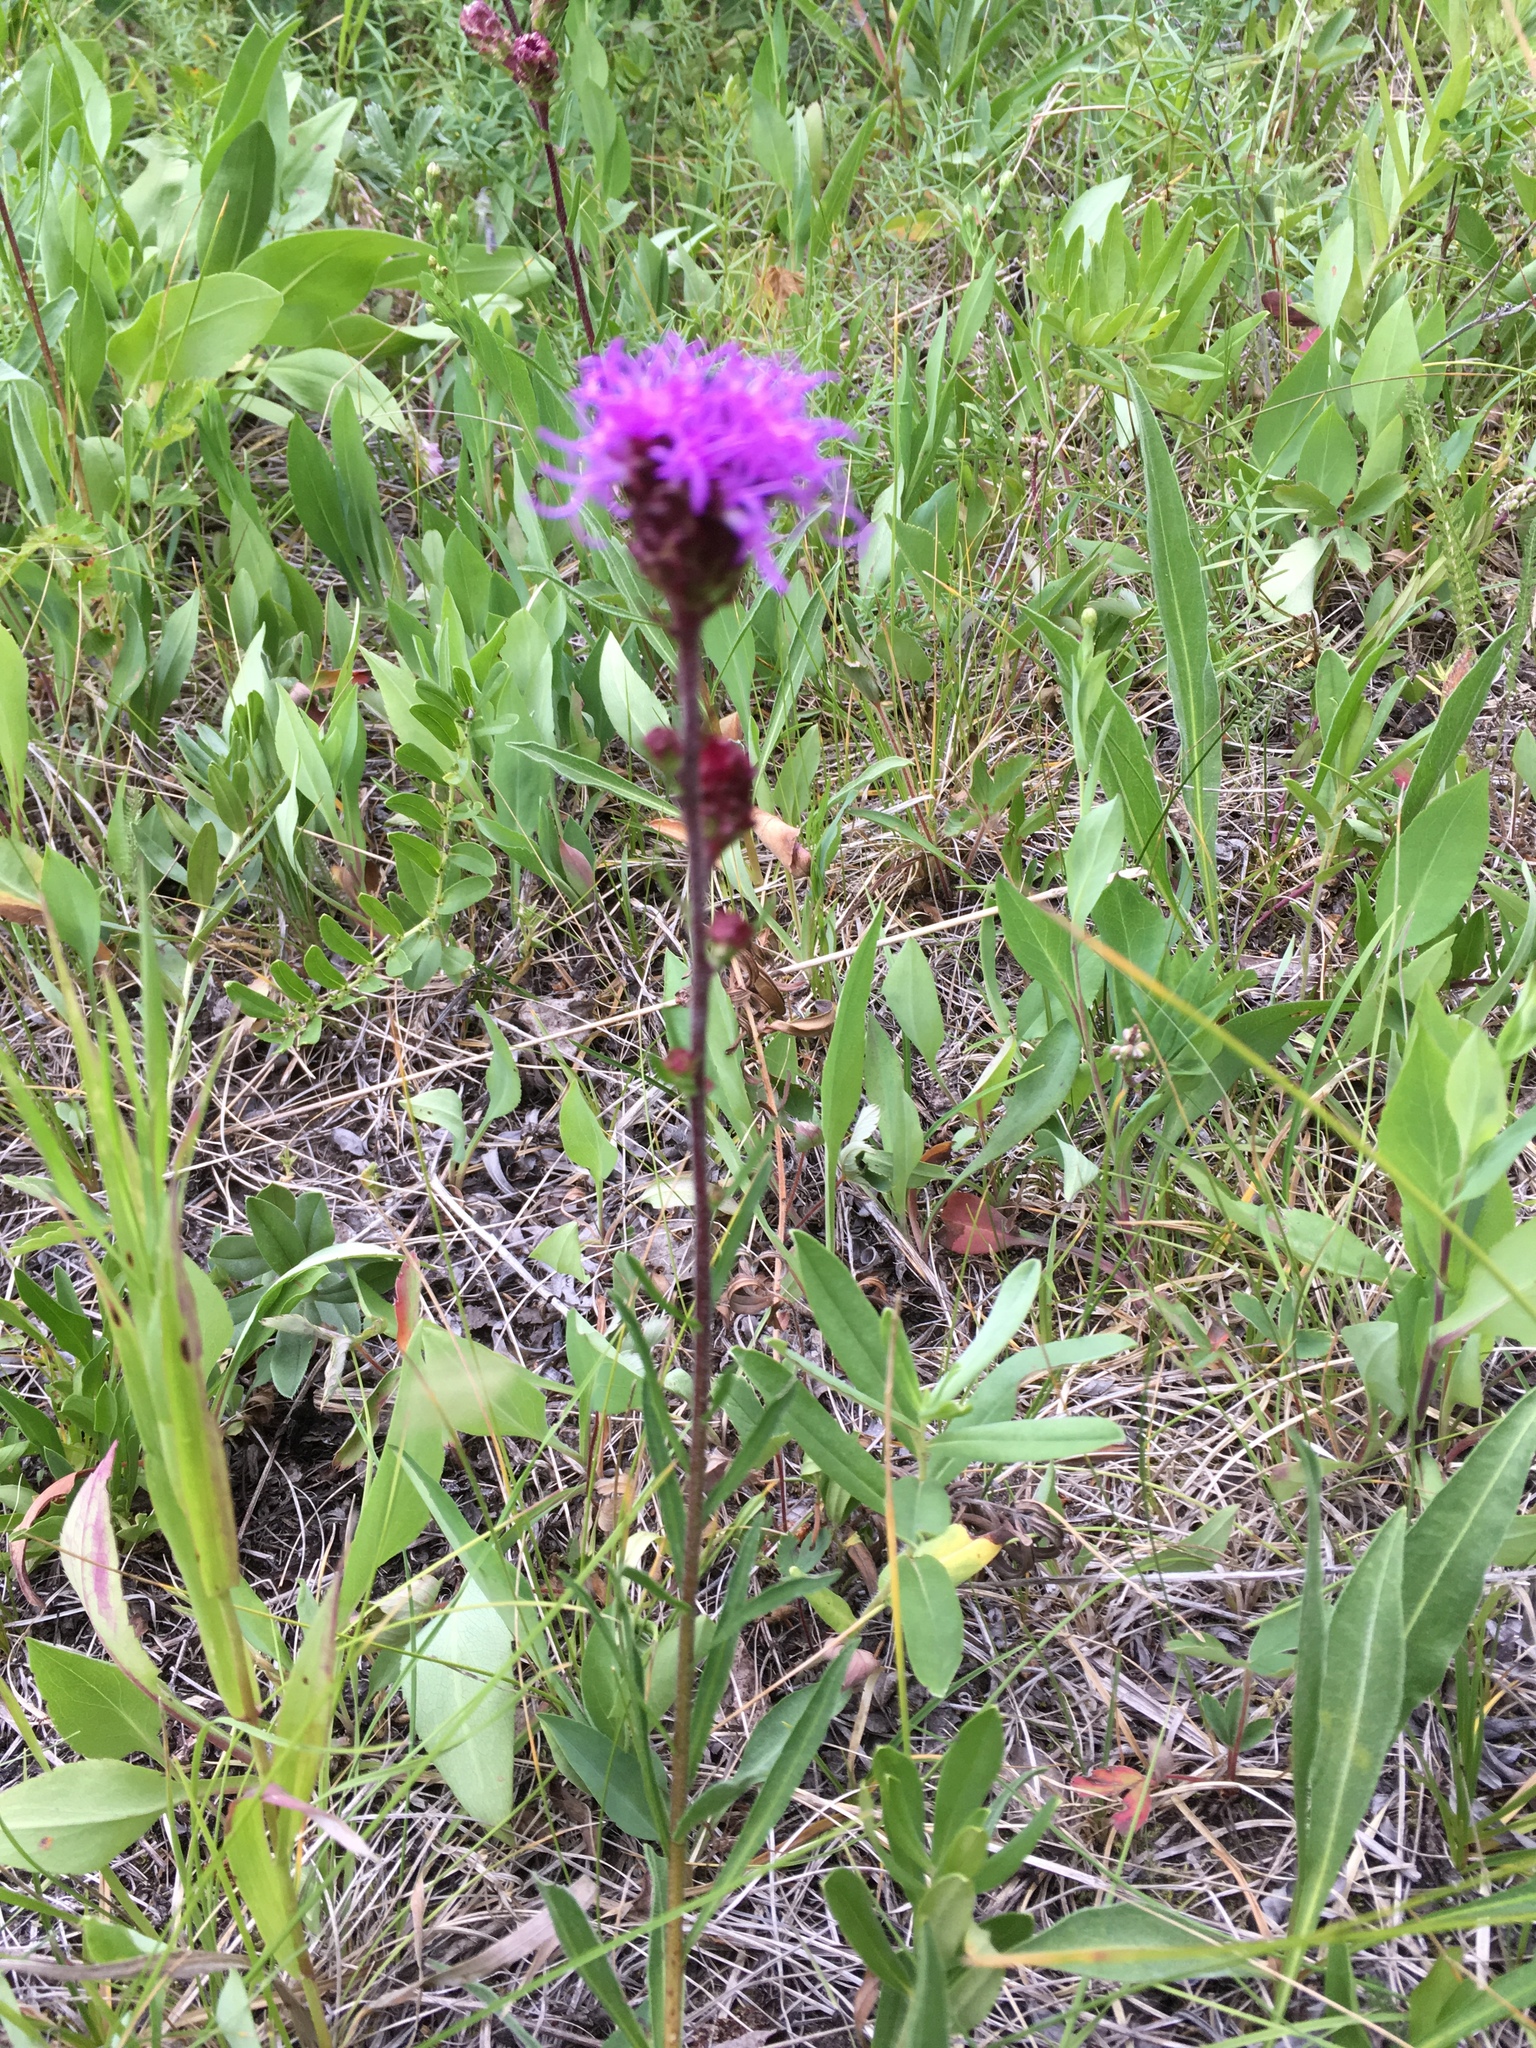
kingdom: Plantae
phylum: Tracheophyta
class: Magnoliopsida
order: Asterales
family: Asteraceae
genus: Liatris
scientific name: Liatris ligulistylis
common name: Northern plains gayfeather
